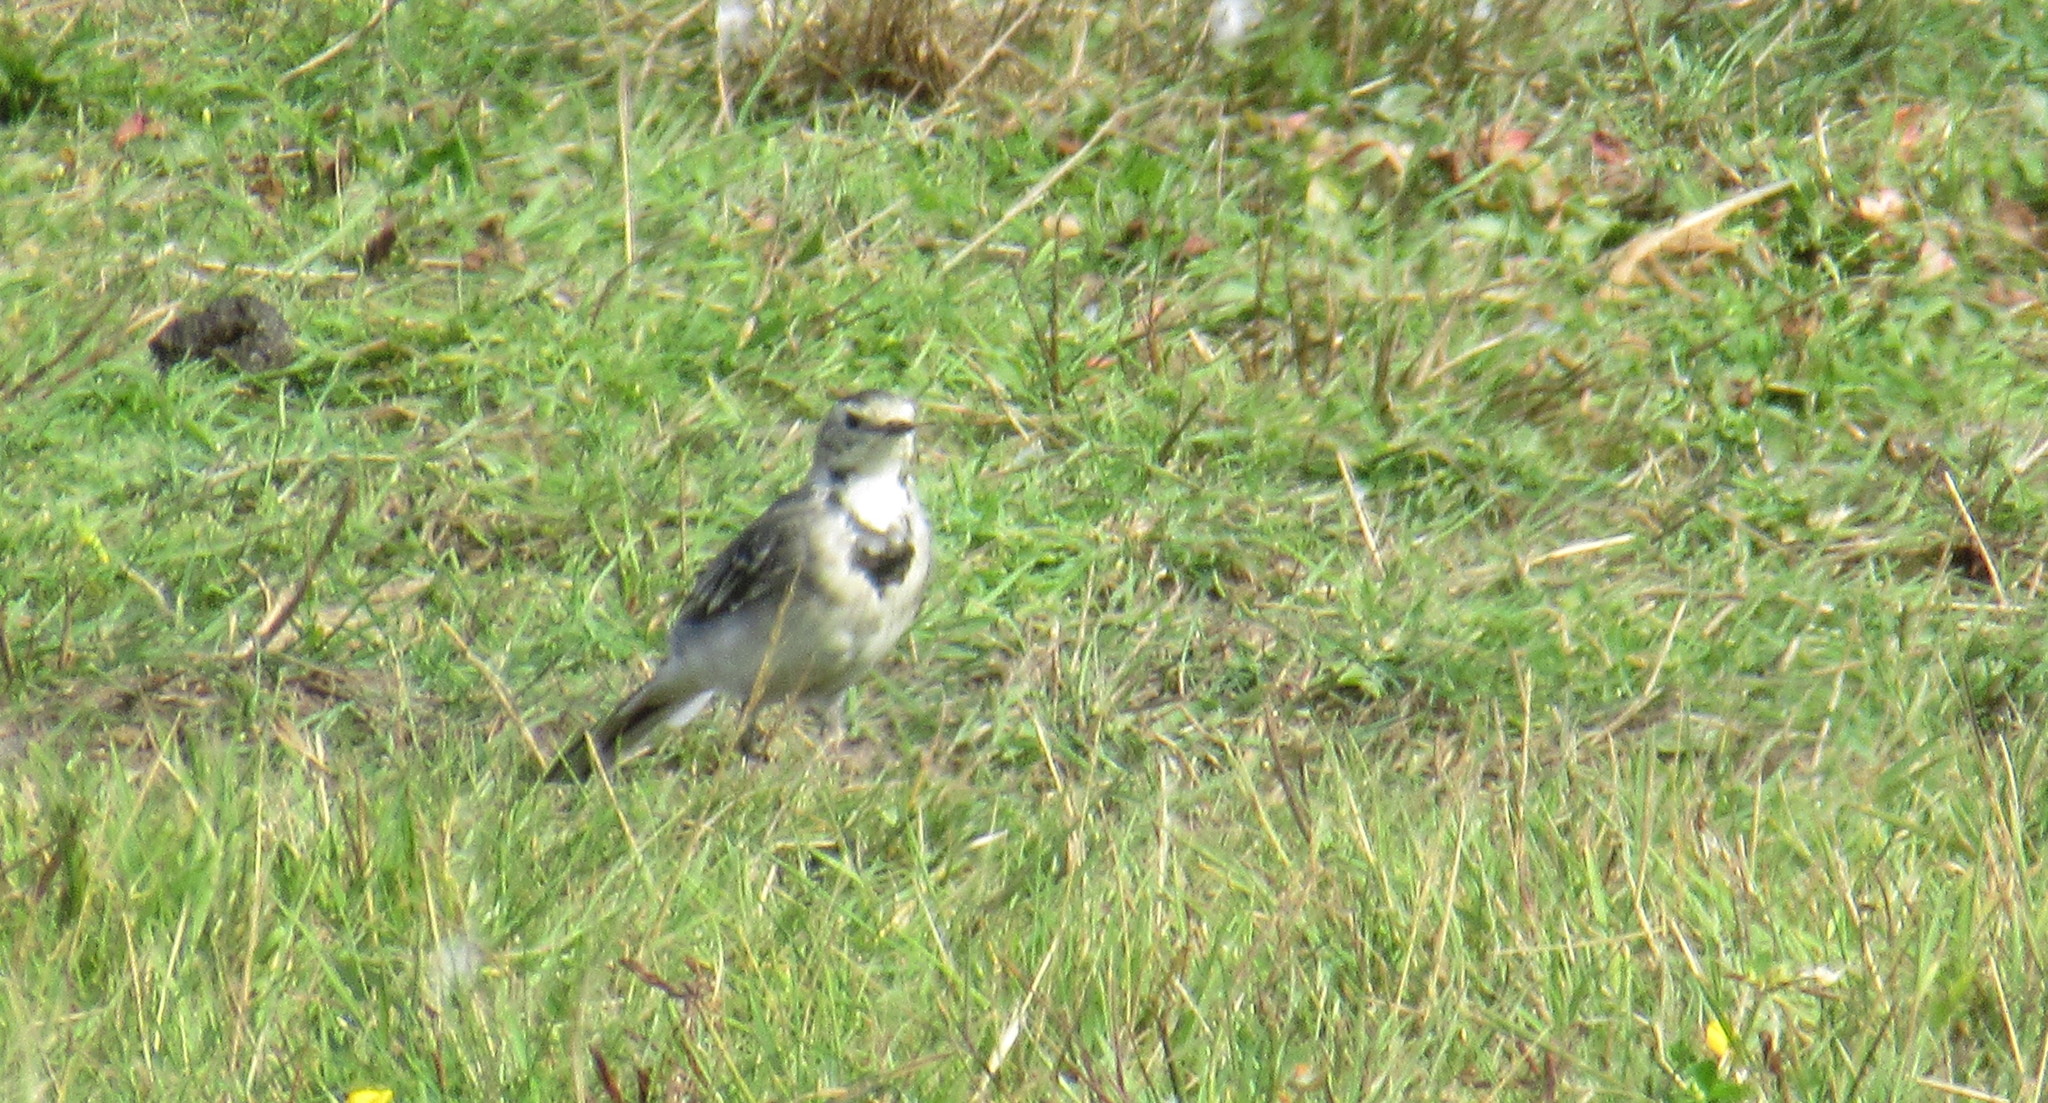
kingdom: Animalia
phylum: Chordata
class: Aves
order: Passeriformes
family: Motacillidae
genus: Motacilla
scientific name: Motacilla alba
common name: White wagtail
